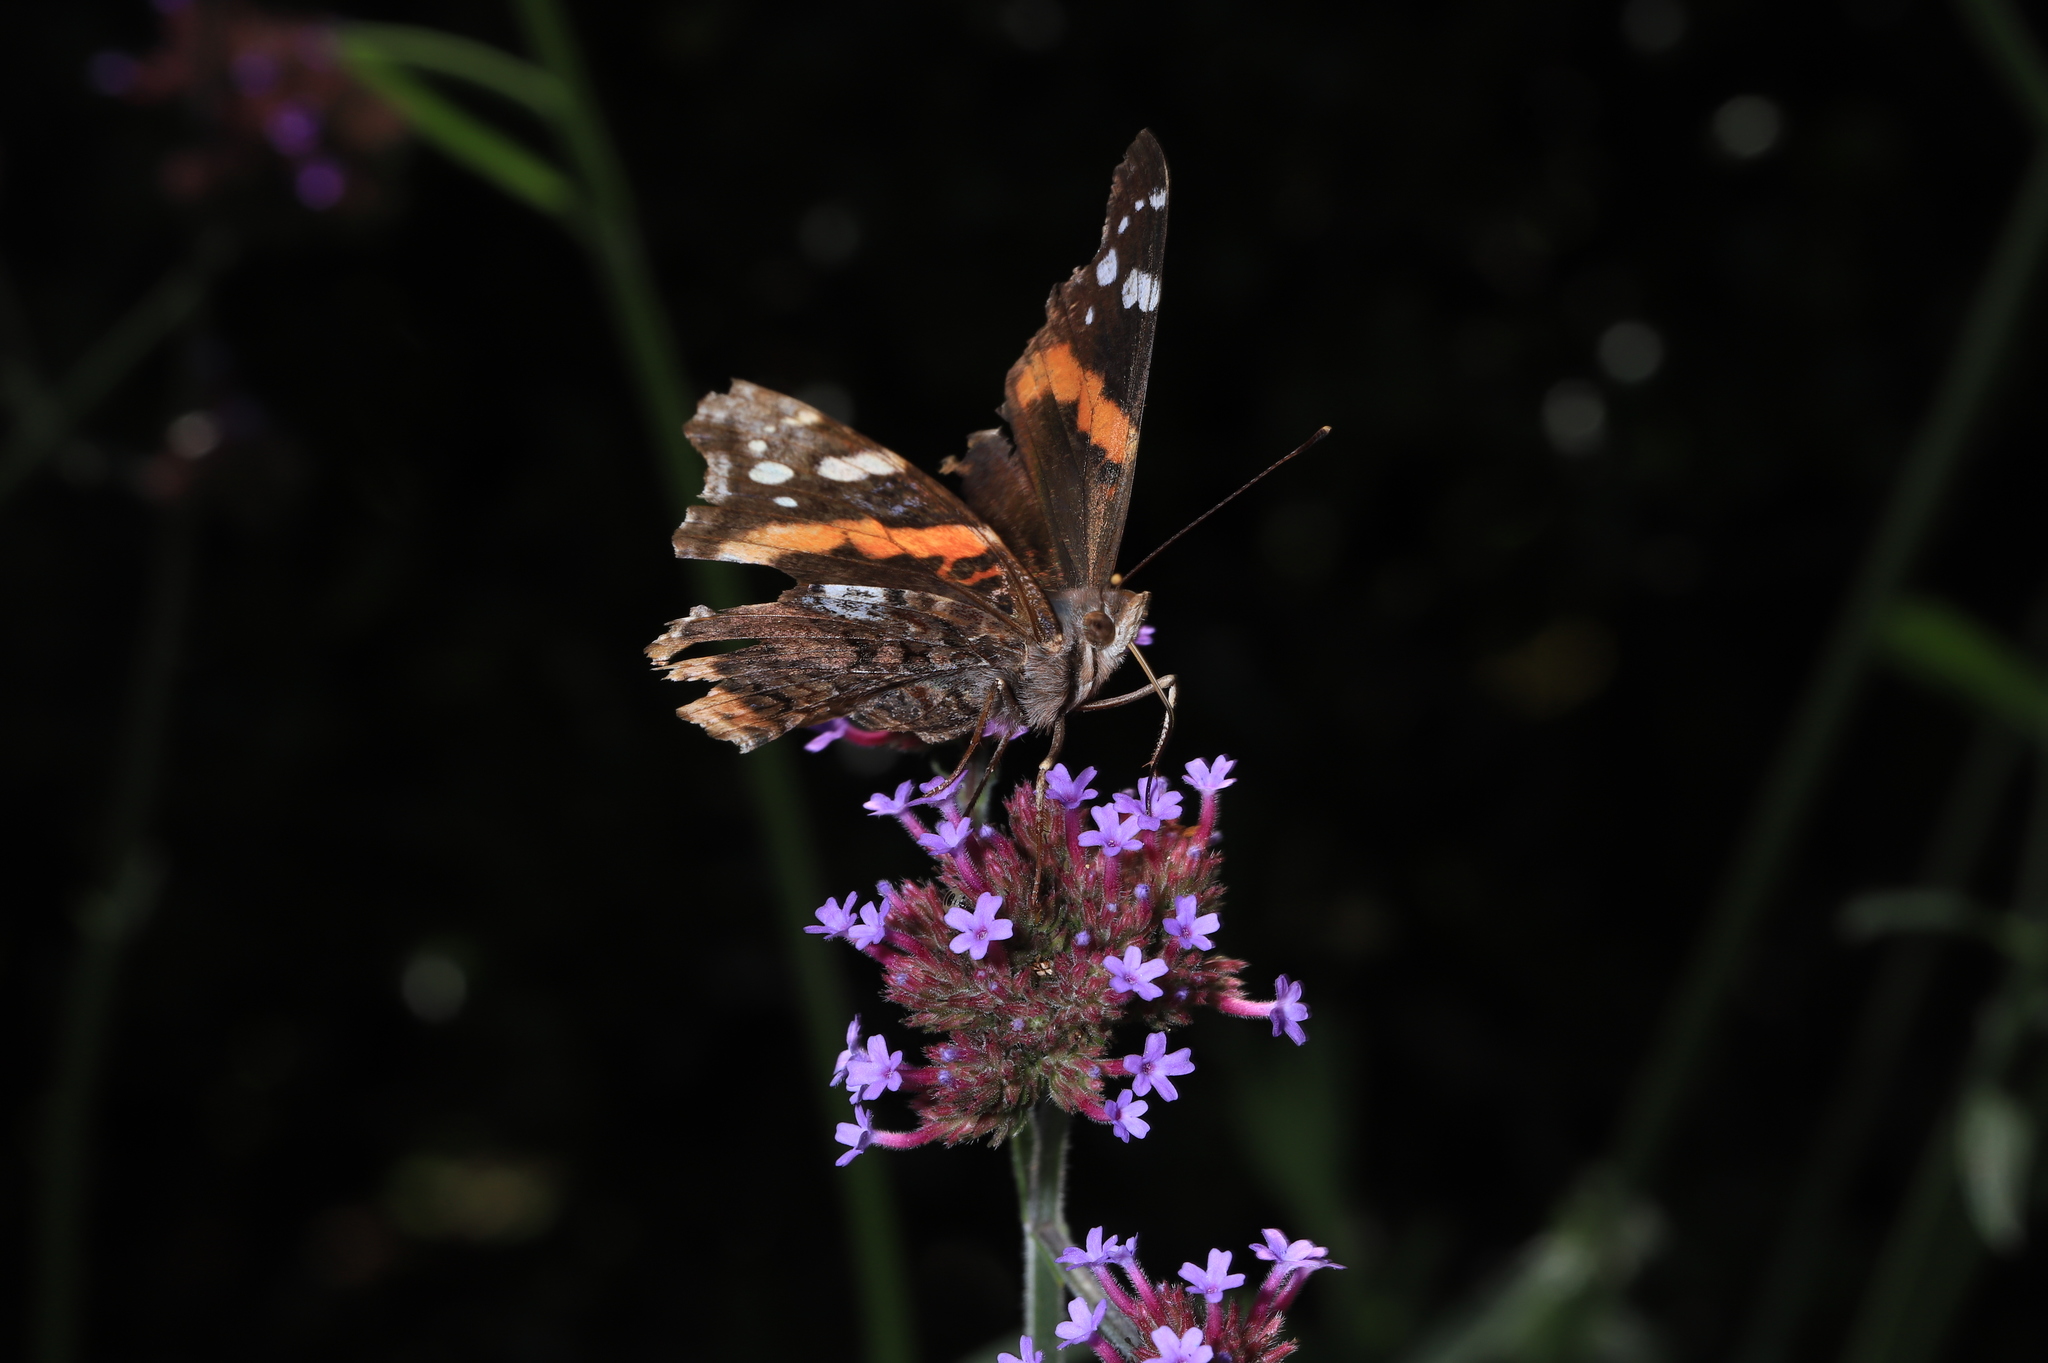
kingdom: Animalia
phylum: Arthropoda
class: Insecta
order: Lepidoptera
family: Nymphalidae
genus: Vanessa
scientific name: Vanessa atalanta
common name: Red admiral
